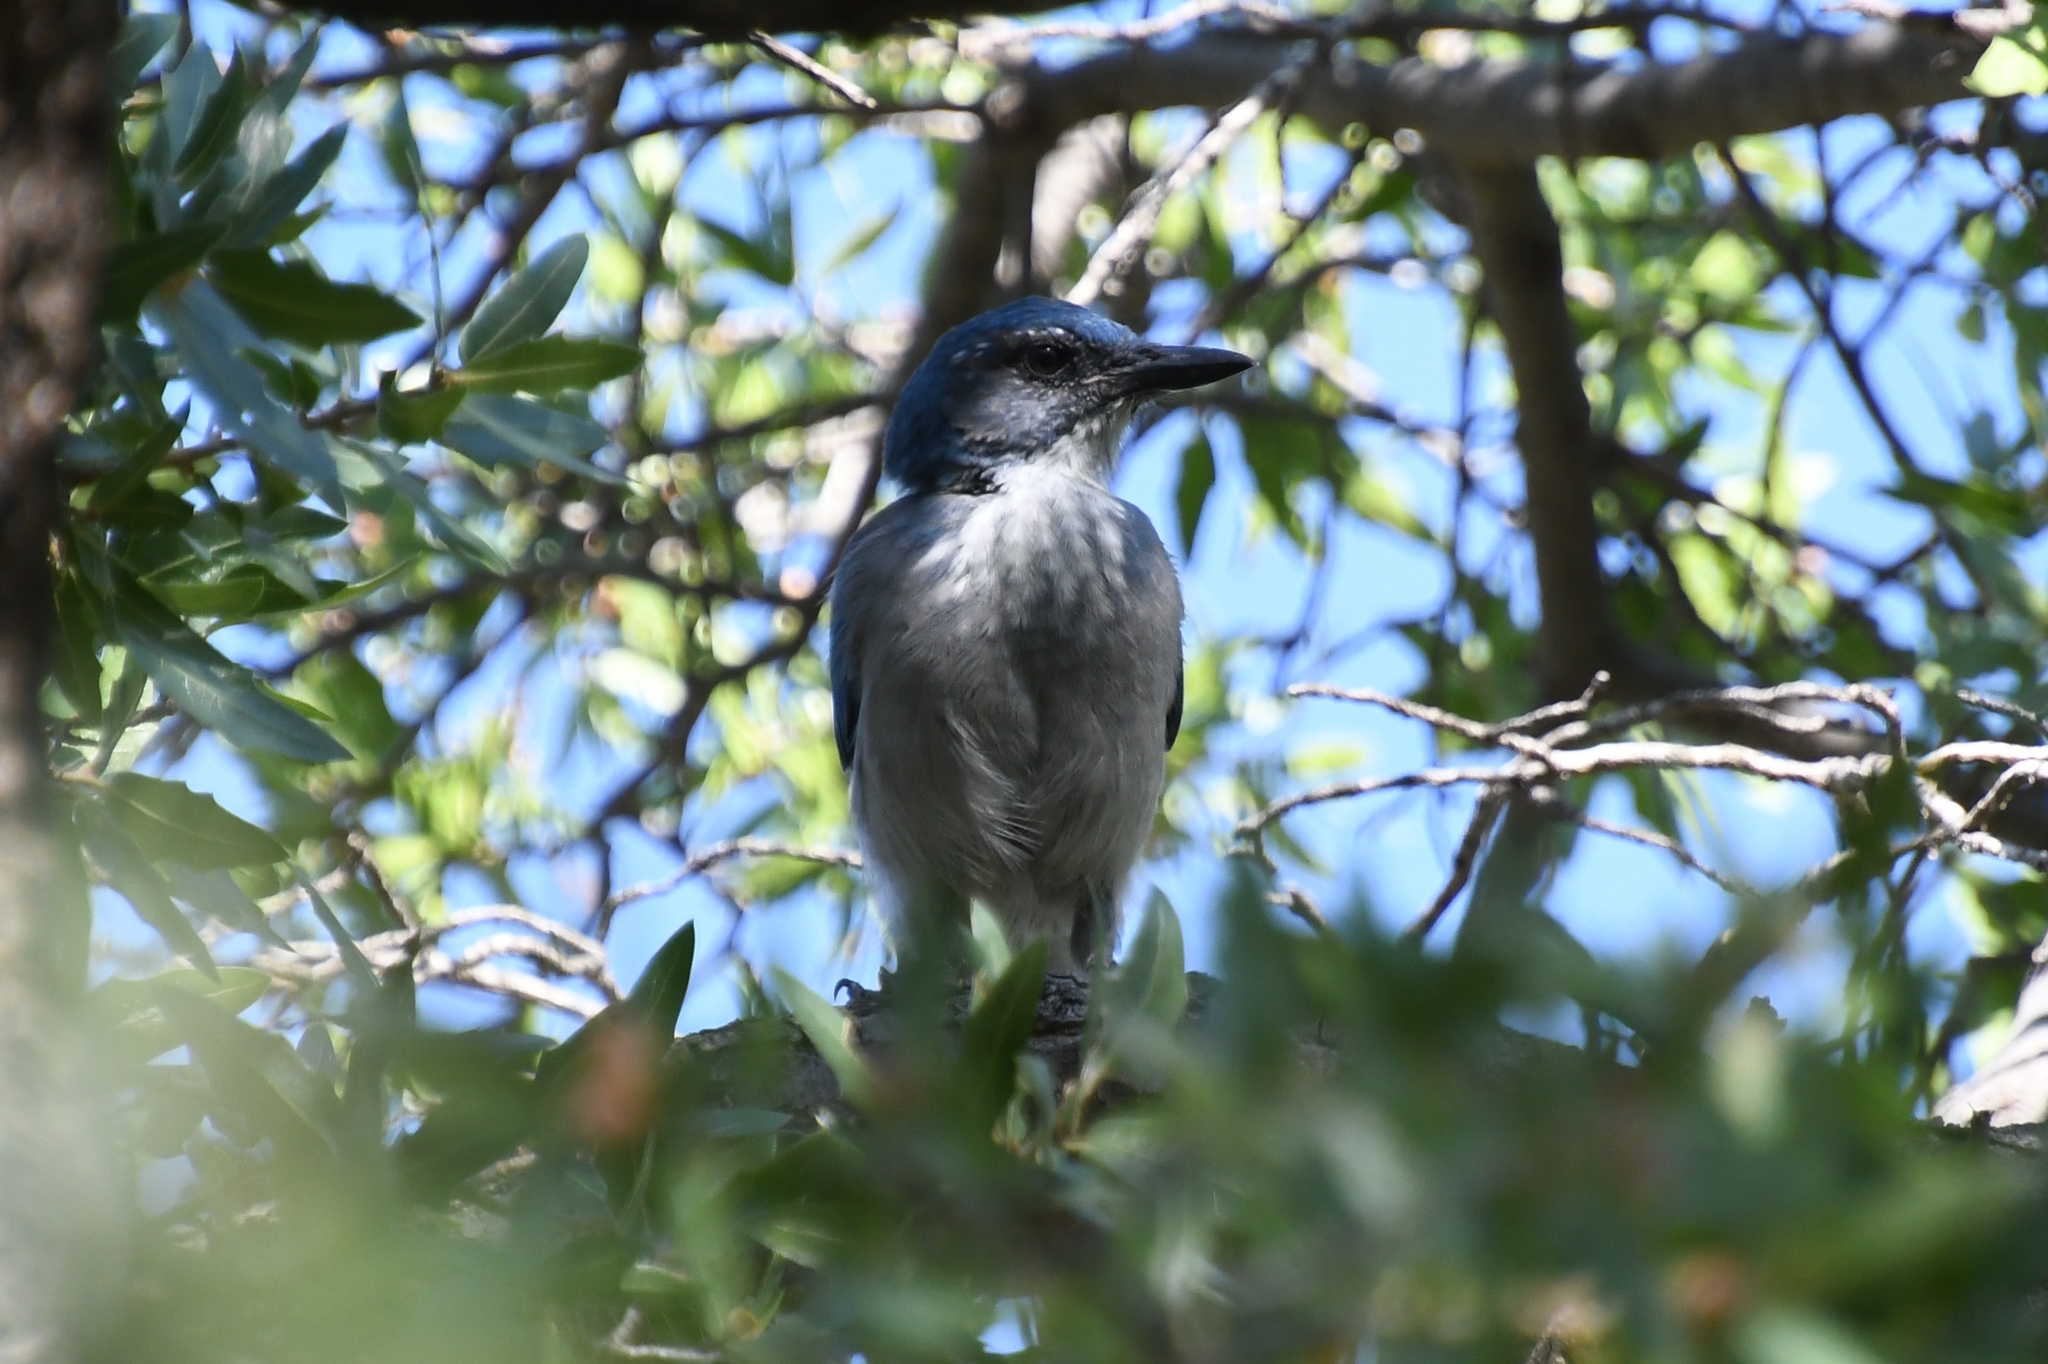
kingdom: Animalia
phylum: Chordata
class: Aves
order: Passeriformes
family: Corvidae
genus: Aphelocoma
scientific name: Aphelocoma woodhouseii
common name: Woodhouse's scrub-jay
